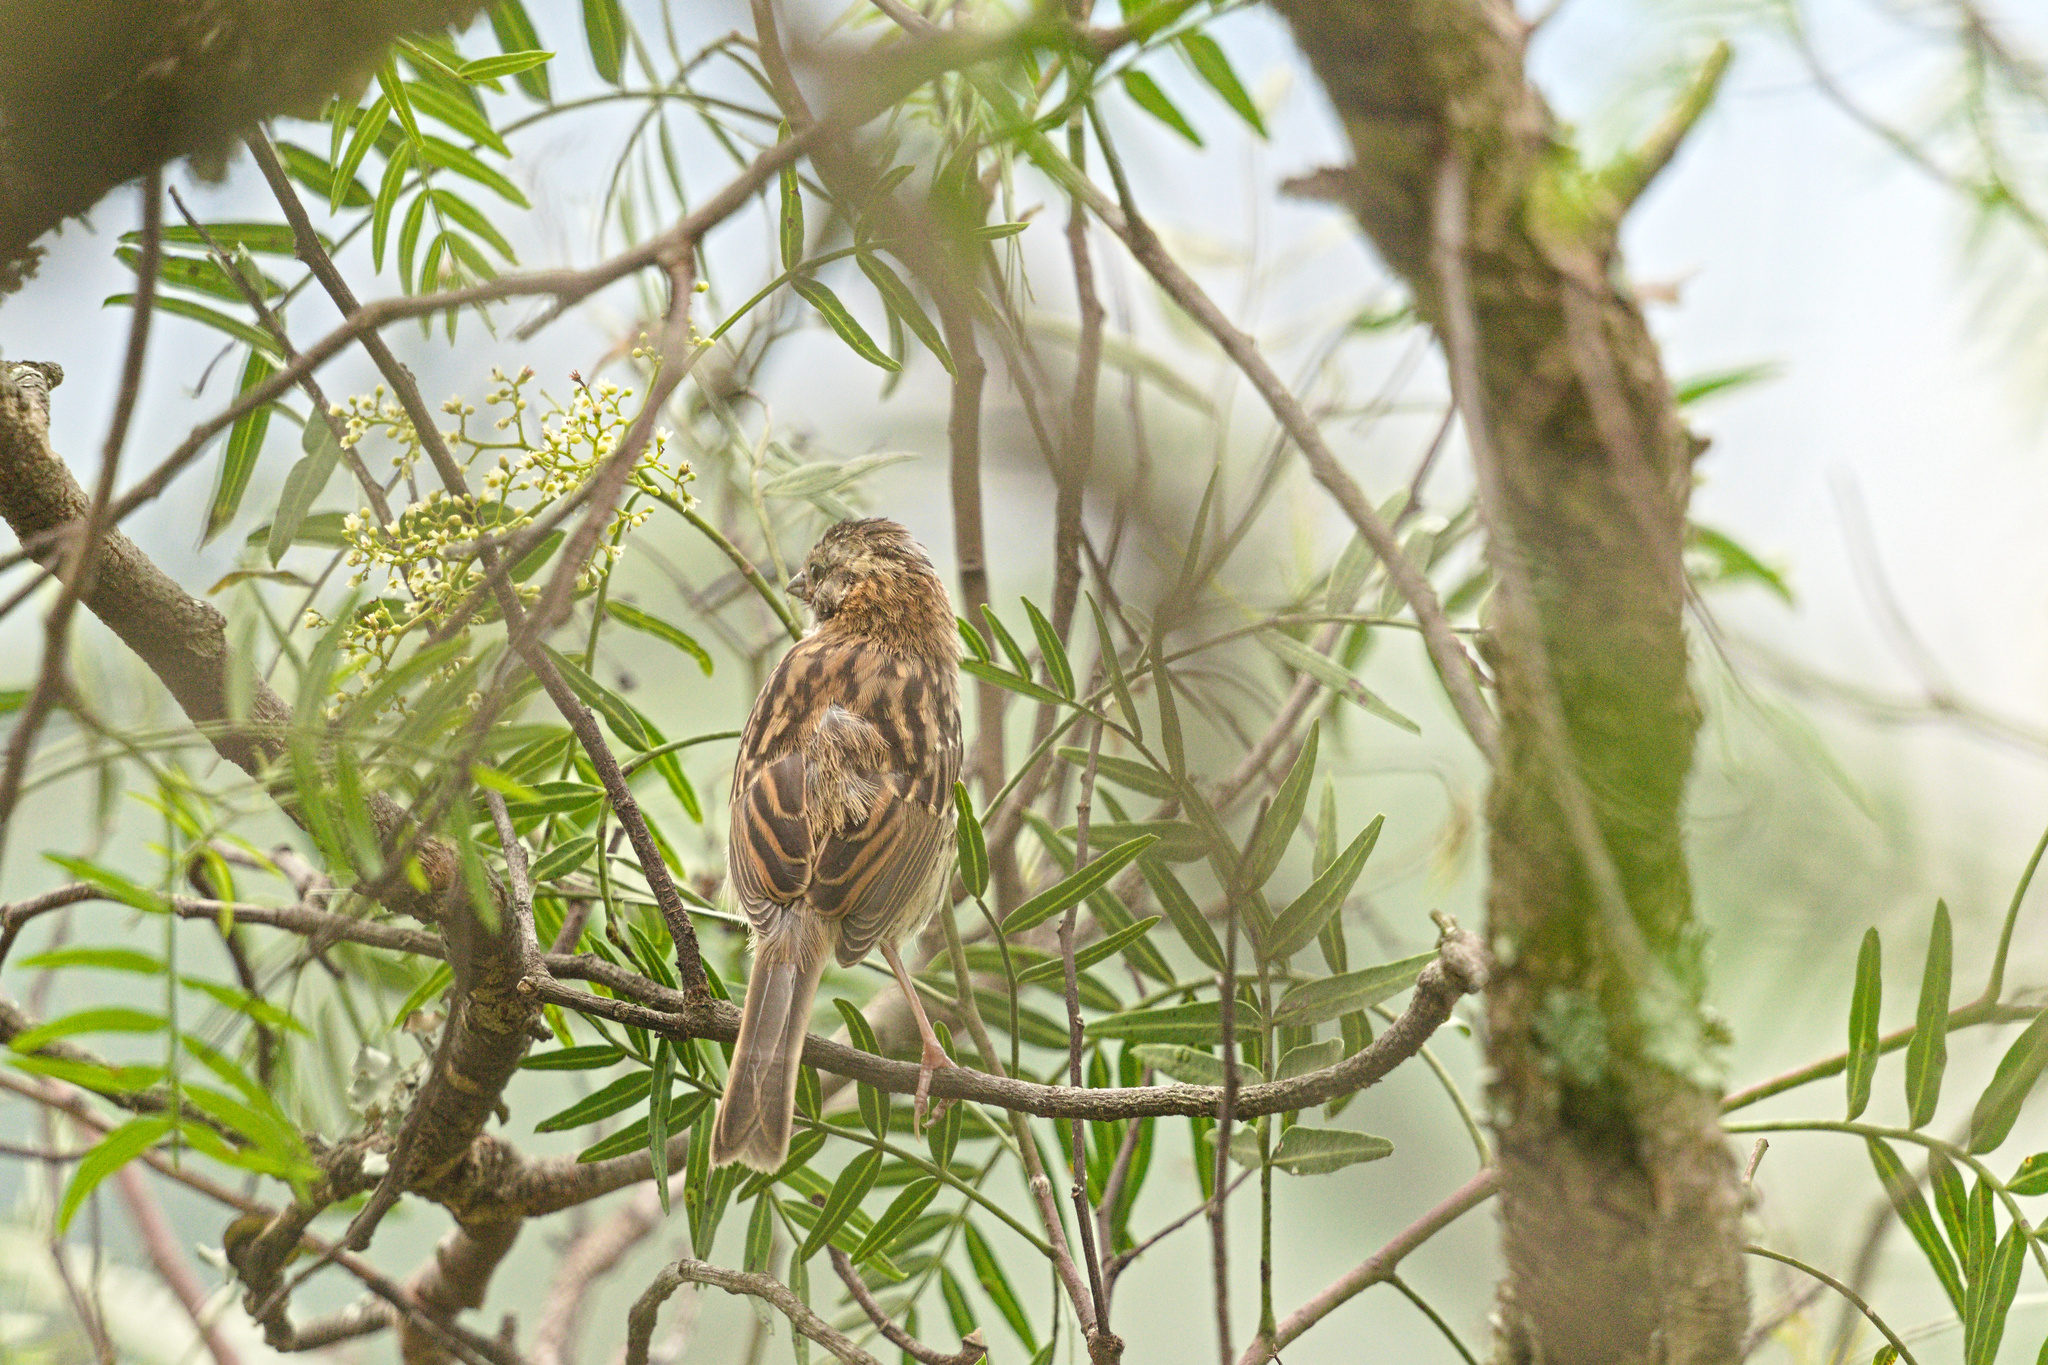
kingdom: Animalia
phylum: Chordata
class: Aves
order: Passeriformes
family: Passerellidae
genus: Zonotrichia
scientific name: Zonotrichia capensis
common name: Rufous-collared sparrow
